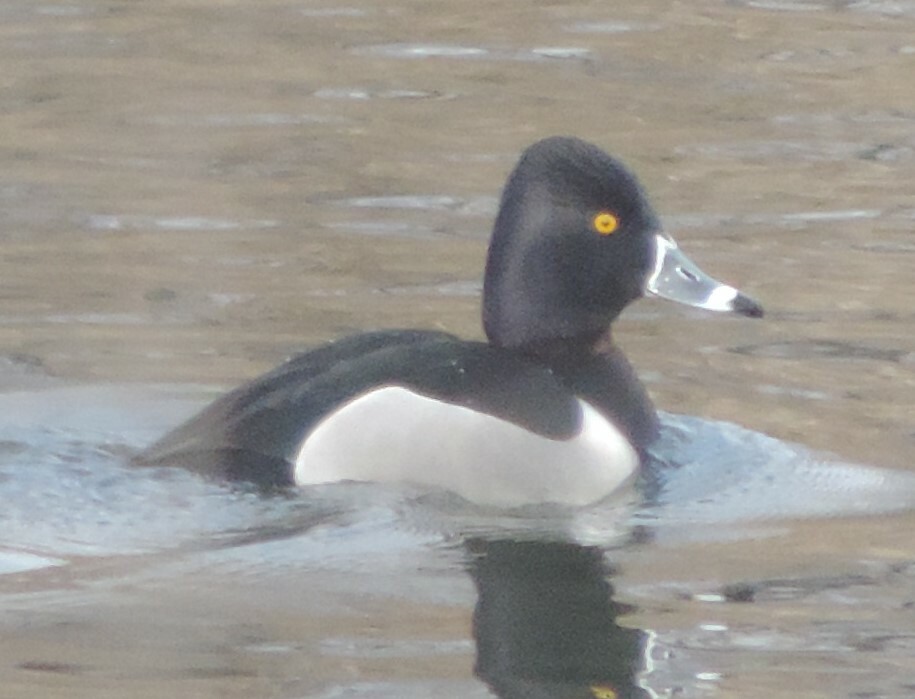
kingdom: Animalia
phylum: Chordata
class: Aves
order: Anseriformes
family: Anatidae
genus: Aythya
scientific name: Aythya collaris
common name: Ring-necked duck
